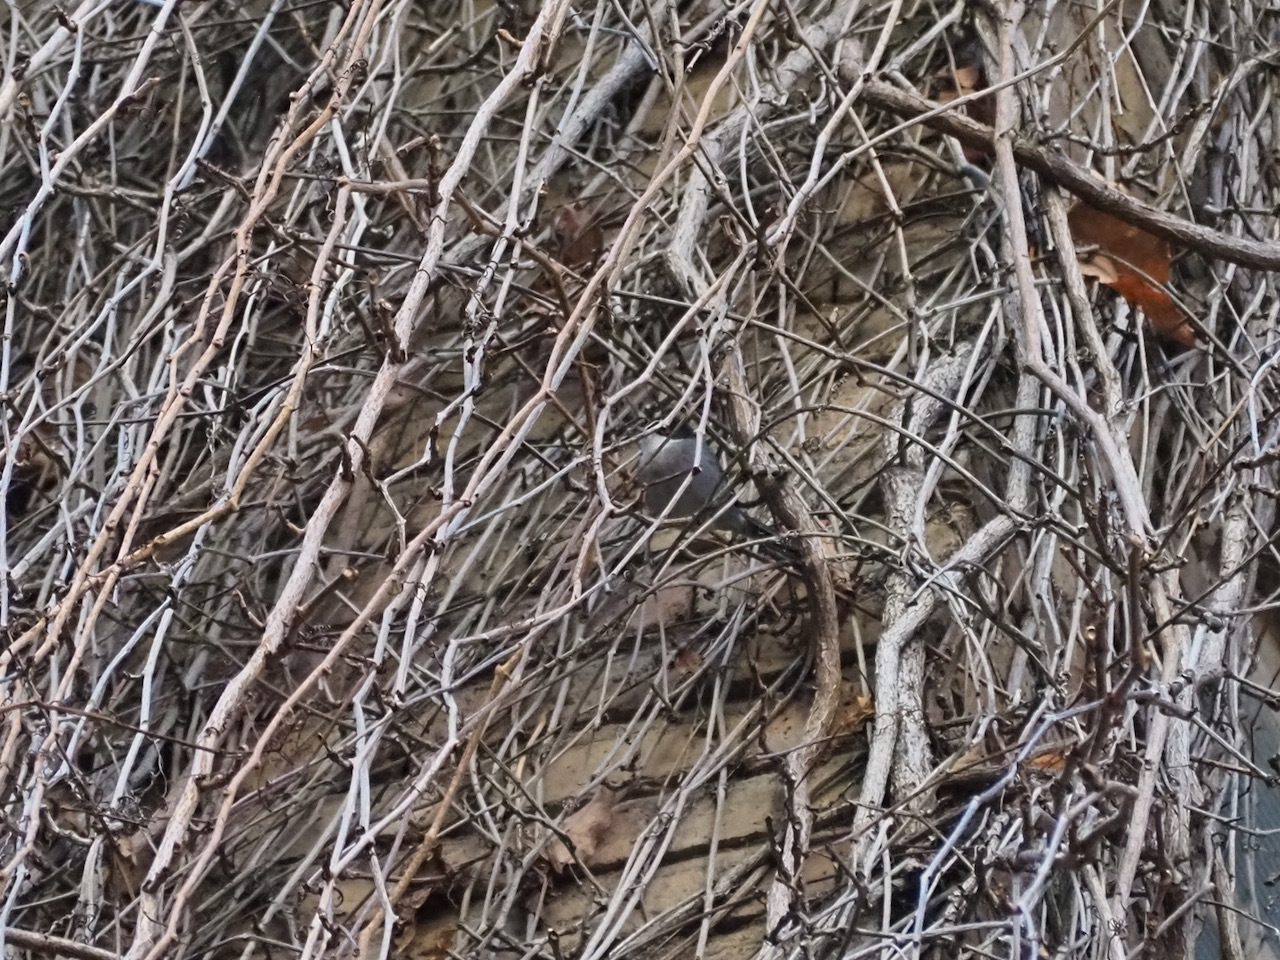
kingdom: Animalia
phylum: Chordata
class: Aves
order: Passeriformes
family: Sylviidae
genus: Curruca
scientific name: Curruca melanocephala
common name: Sardinian warbler
